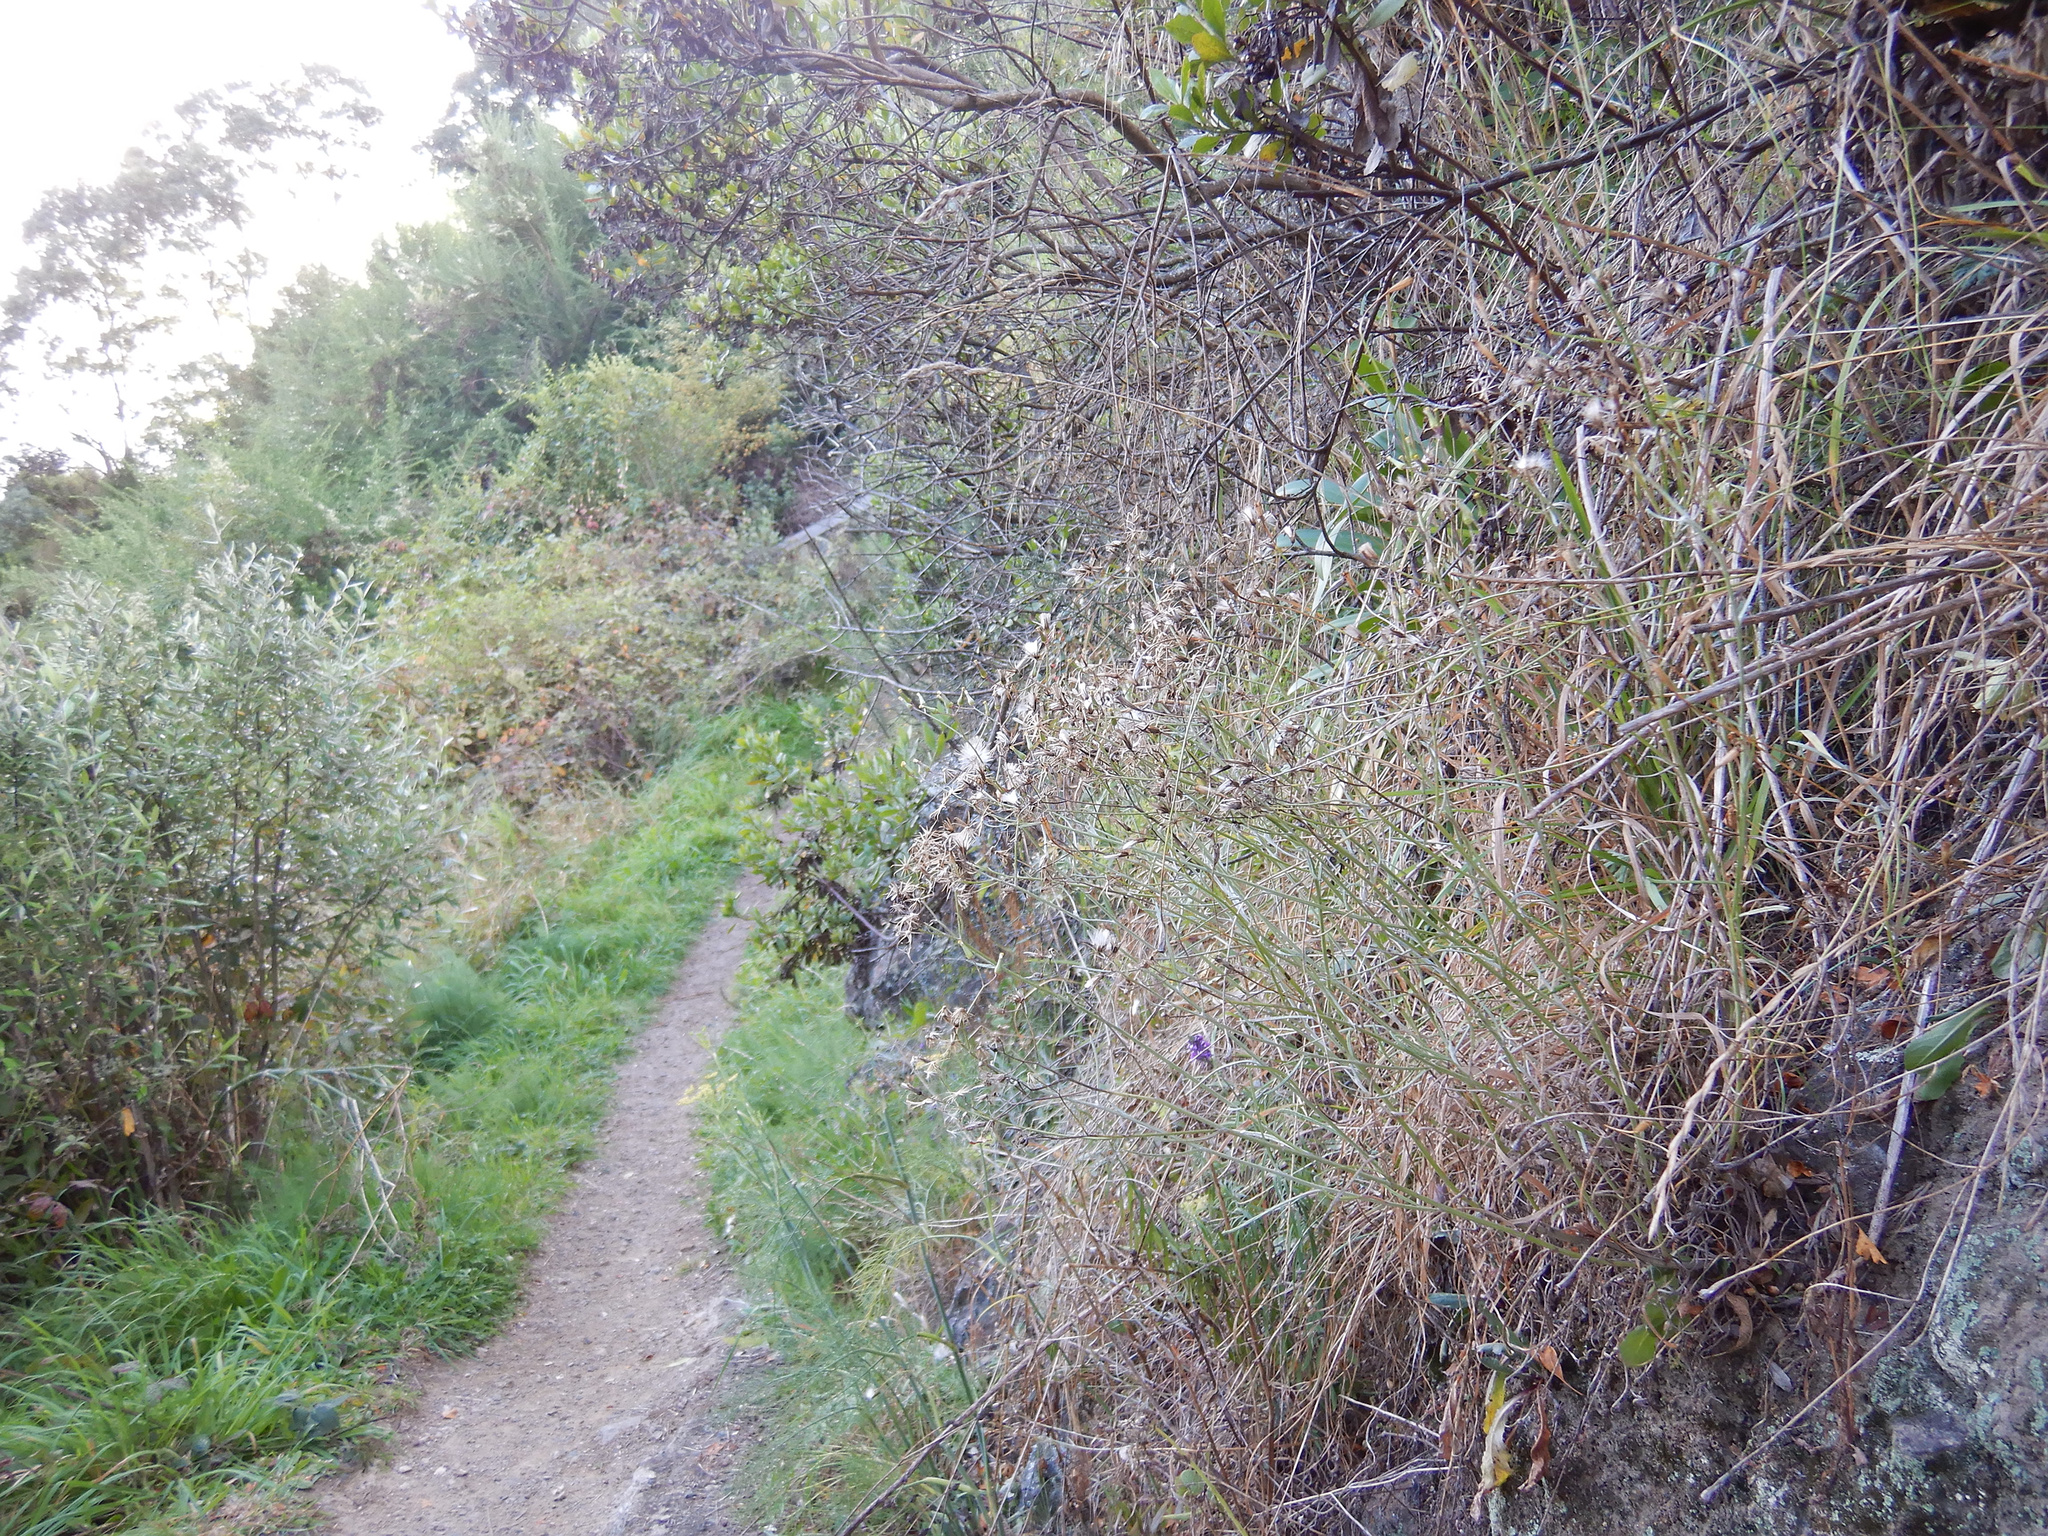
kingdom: Plantae
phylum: Tracheophyta
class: Magnoliopsida
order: Asterales
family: Asteraceae
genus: Senecio
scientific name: Senecio quadridentatus
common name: Cotton fireweed
